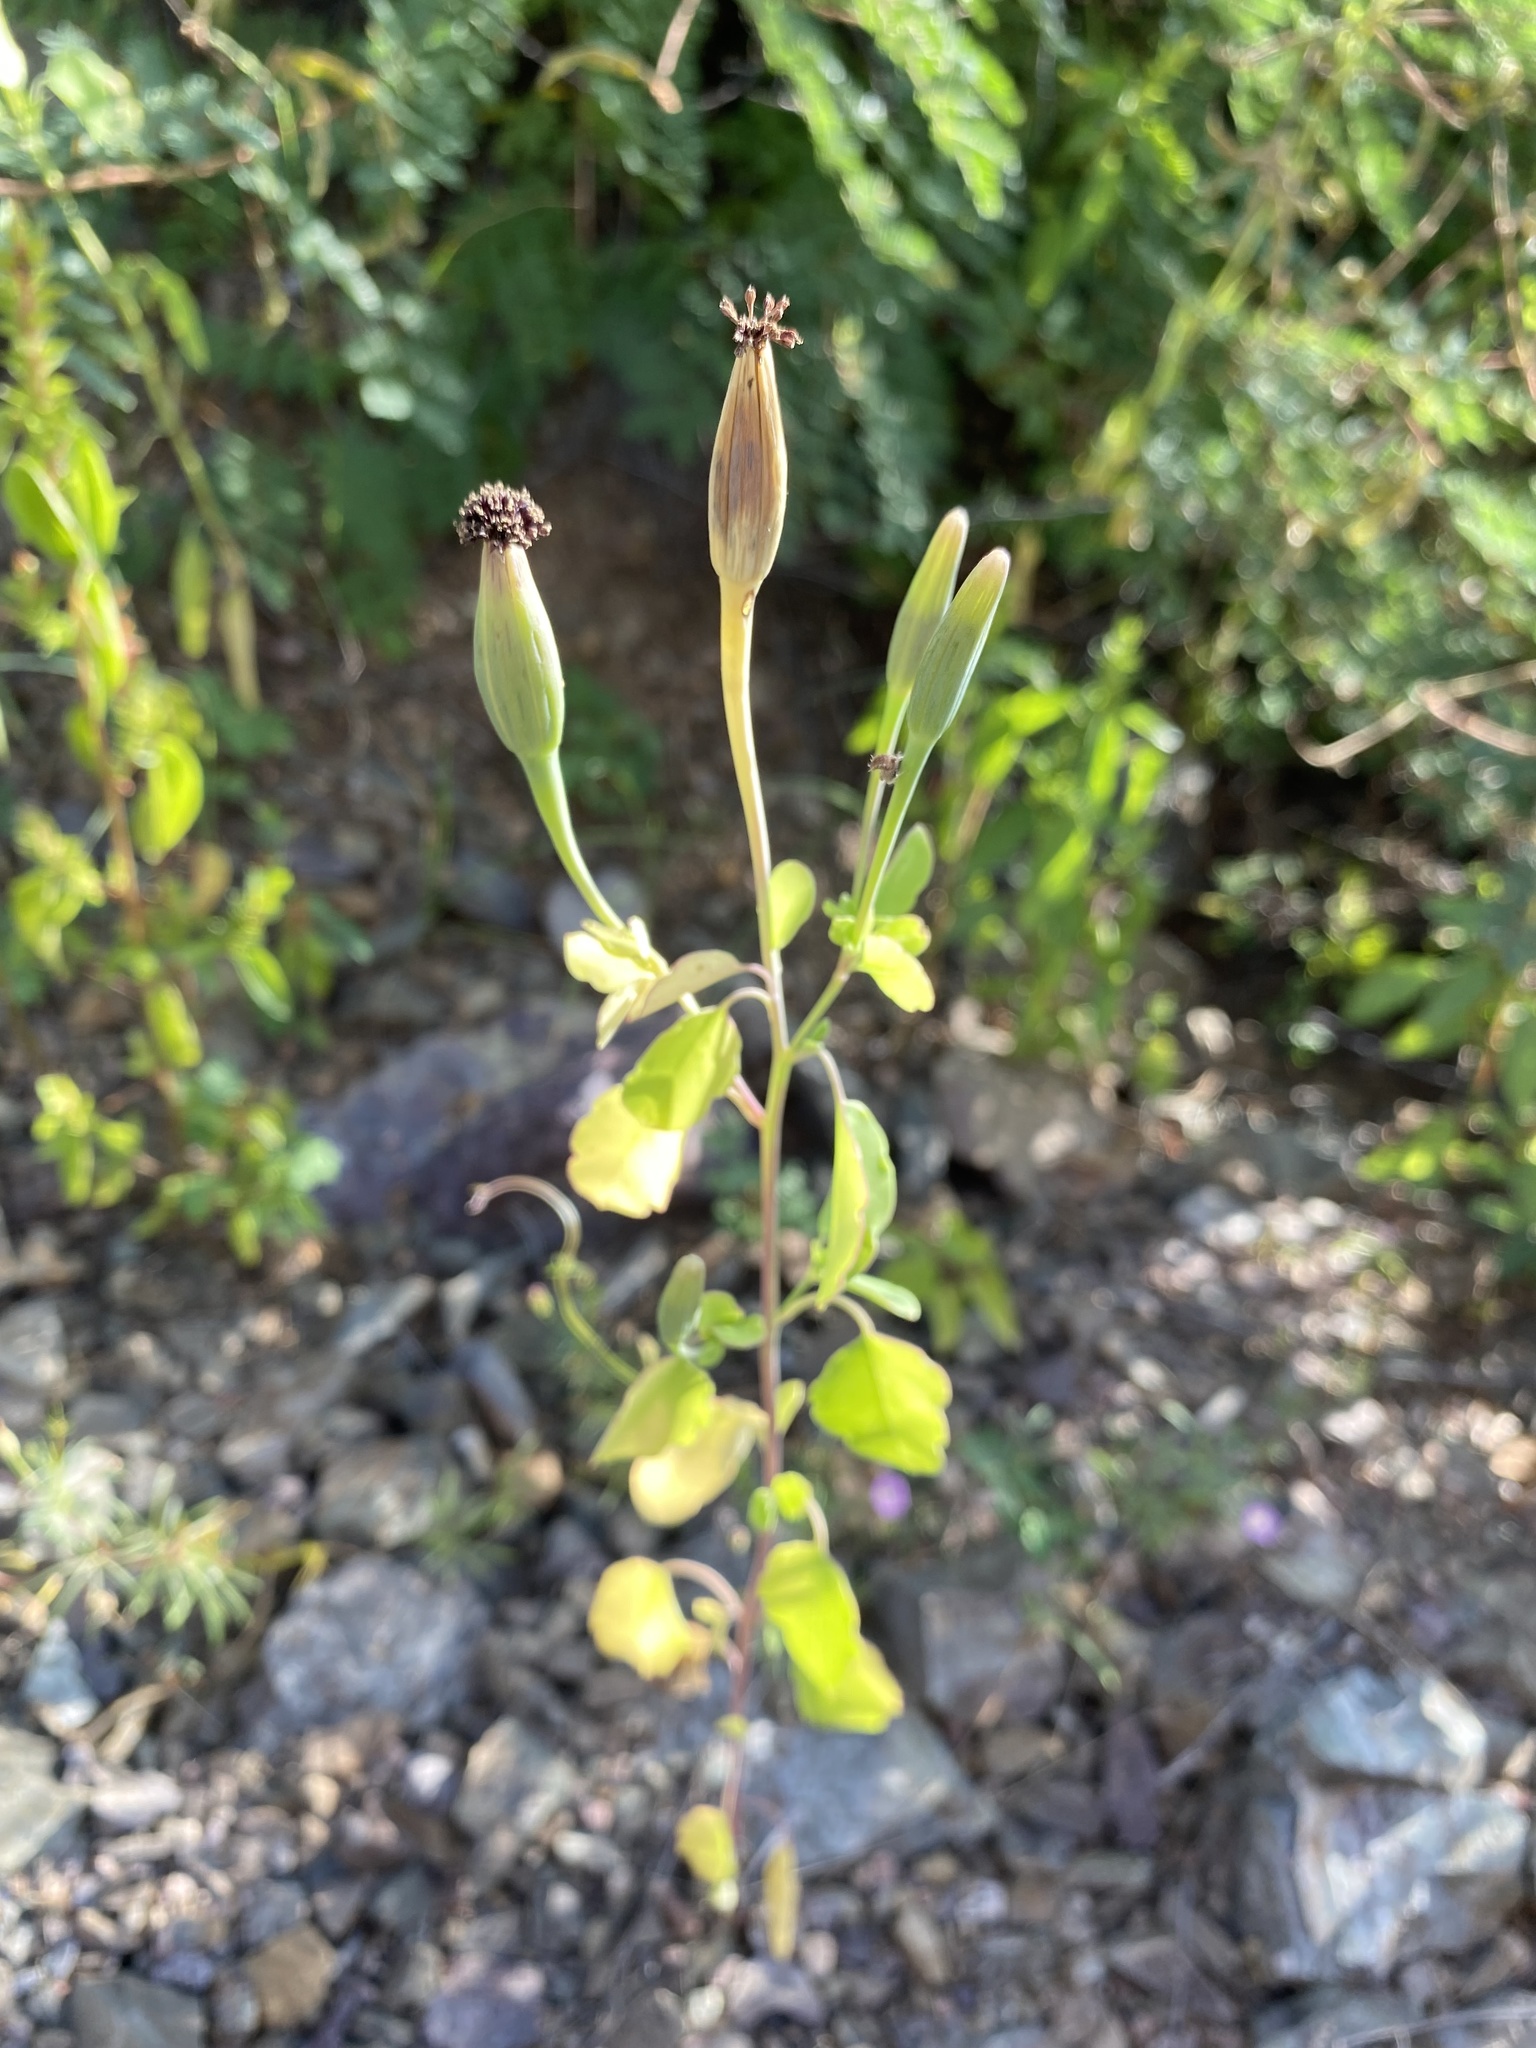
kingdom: Plantae
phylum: Tracheophyta
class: Magnoliopsida
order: Asterales
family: Asteraceae
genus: Porophyllum
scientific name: Porophyllum ruderale
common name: Yerba porosa
